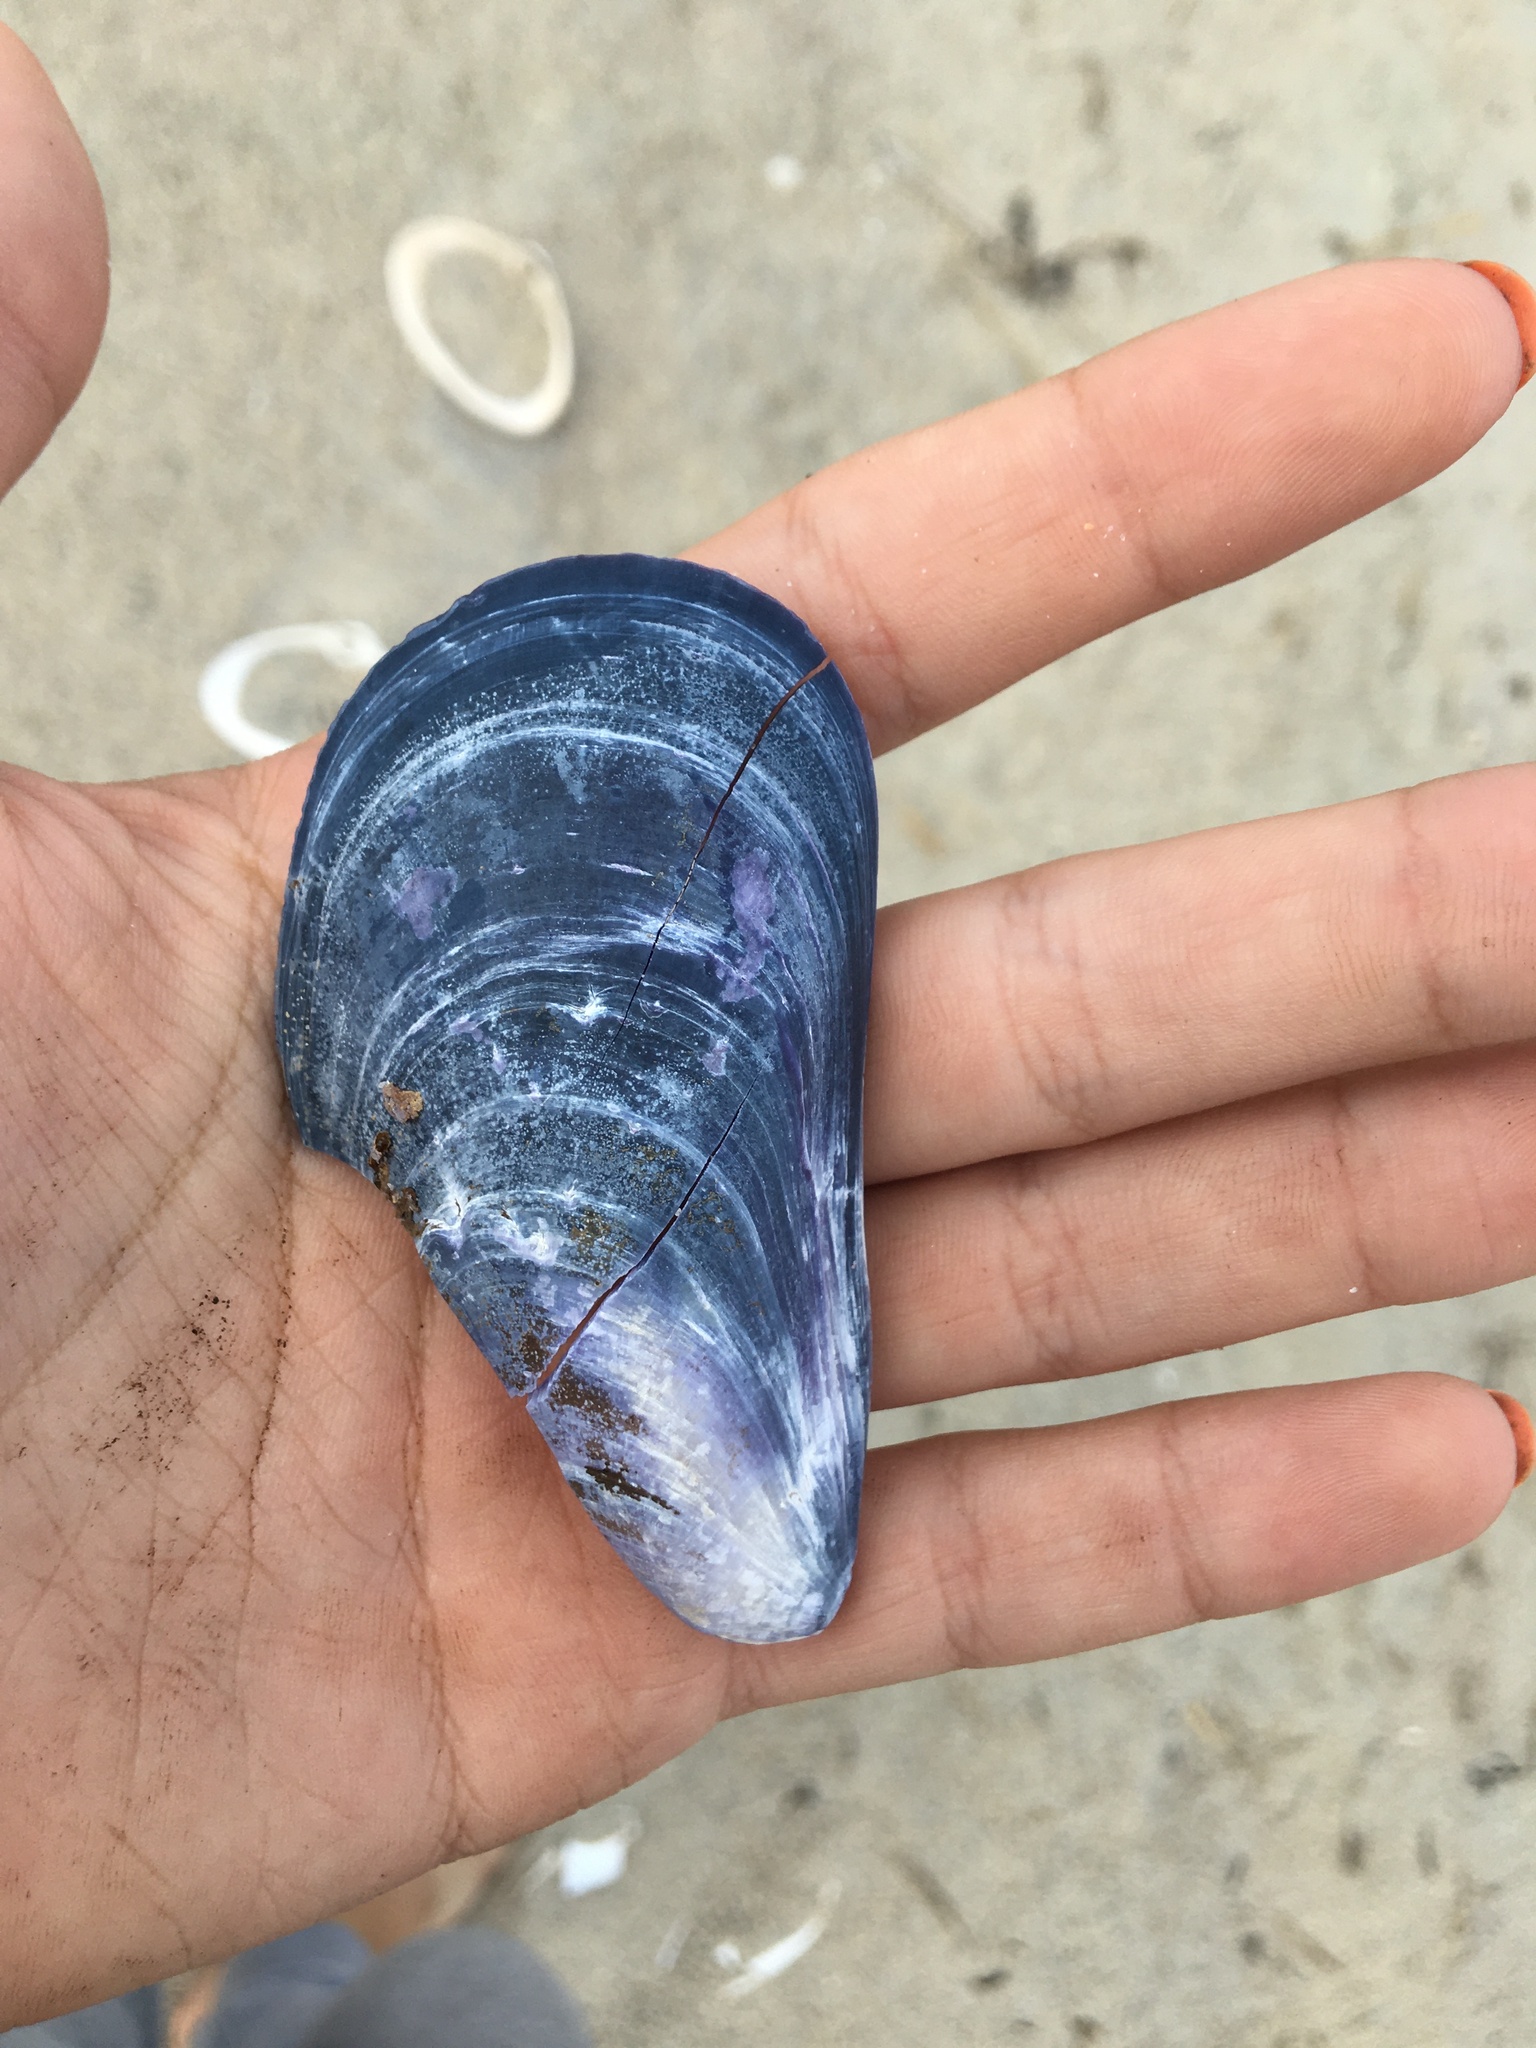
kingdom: Animalia
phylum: Mollusca
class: Bivalvia
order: Mytilida
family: Mytilidae
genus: Mytilus
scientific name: Mytilus edulis
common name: Blue mussel
